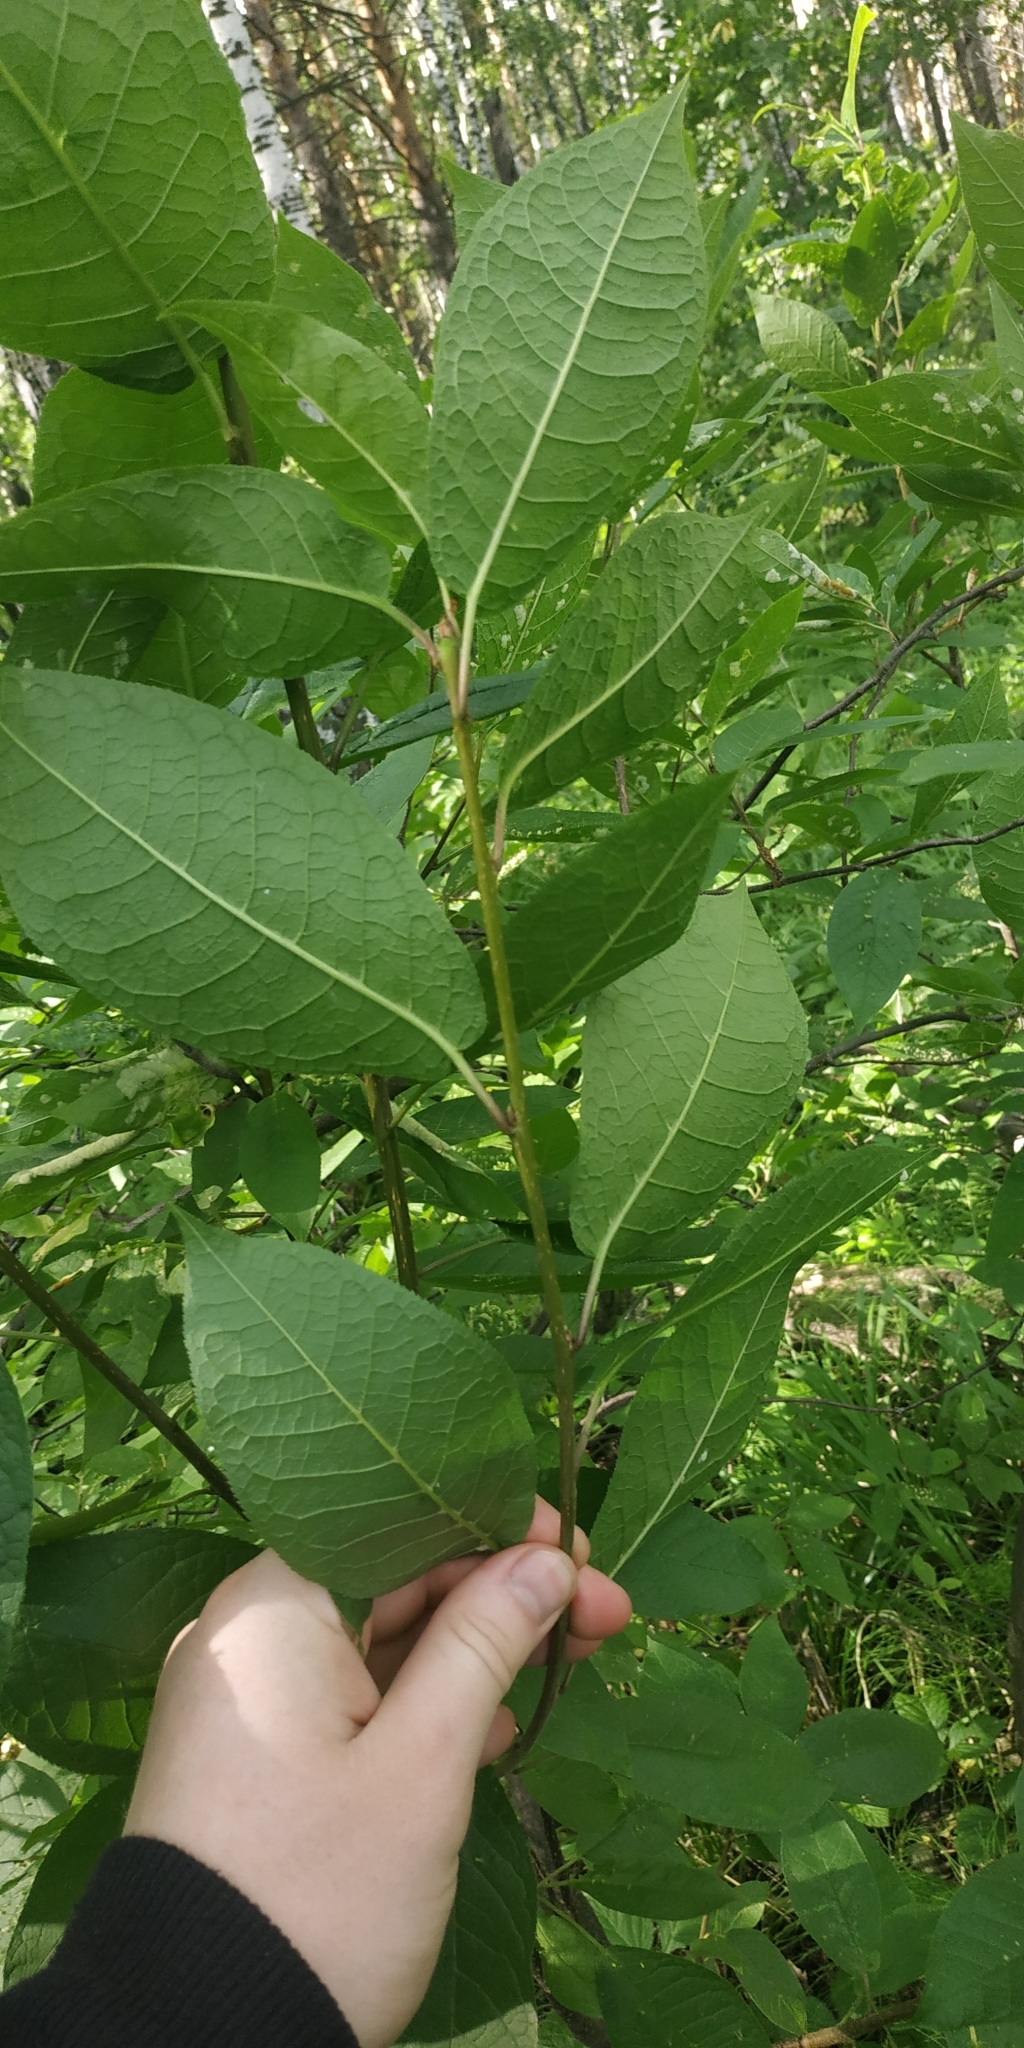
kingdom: Plantae
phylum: Tracheophyta
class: Magnoliopsida
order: Rosales
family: Rosaceae
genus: Prunus
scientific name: Prunus padus
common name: Bird cherry
